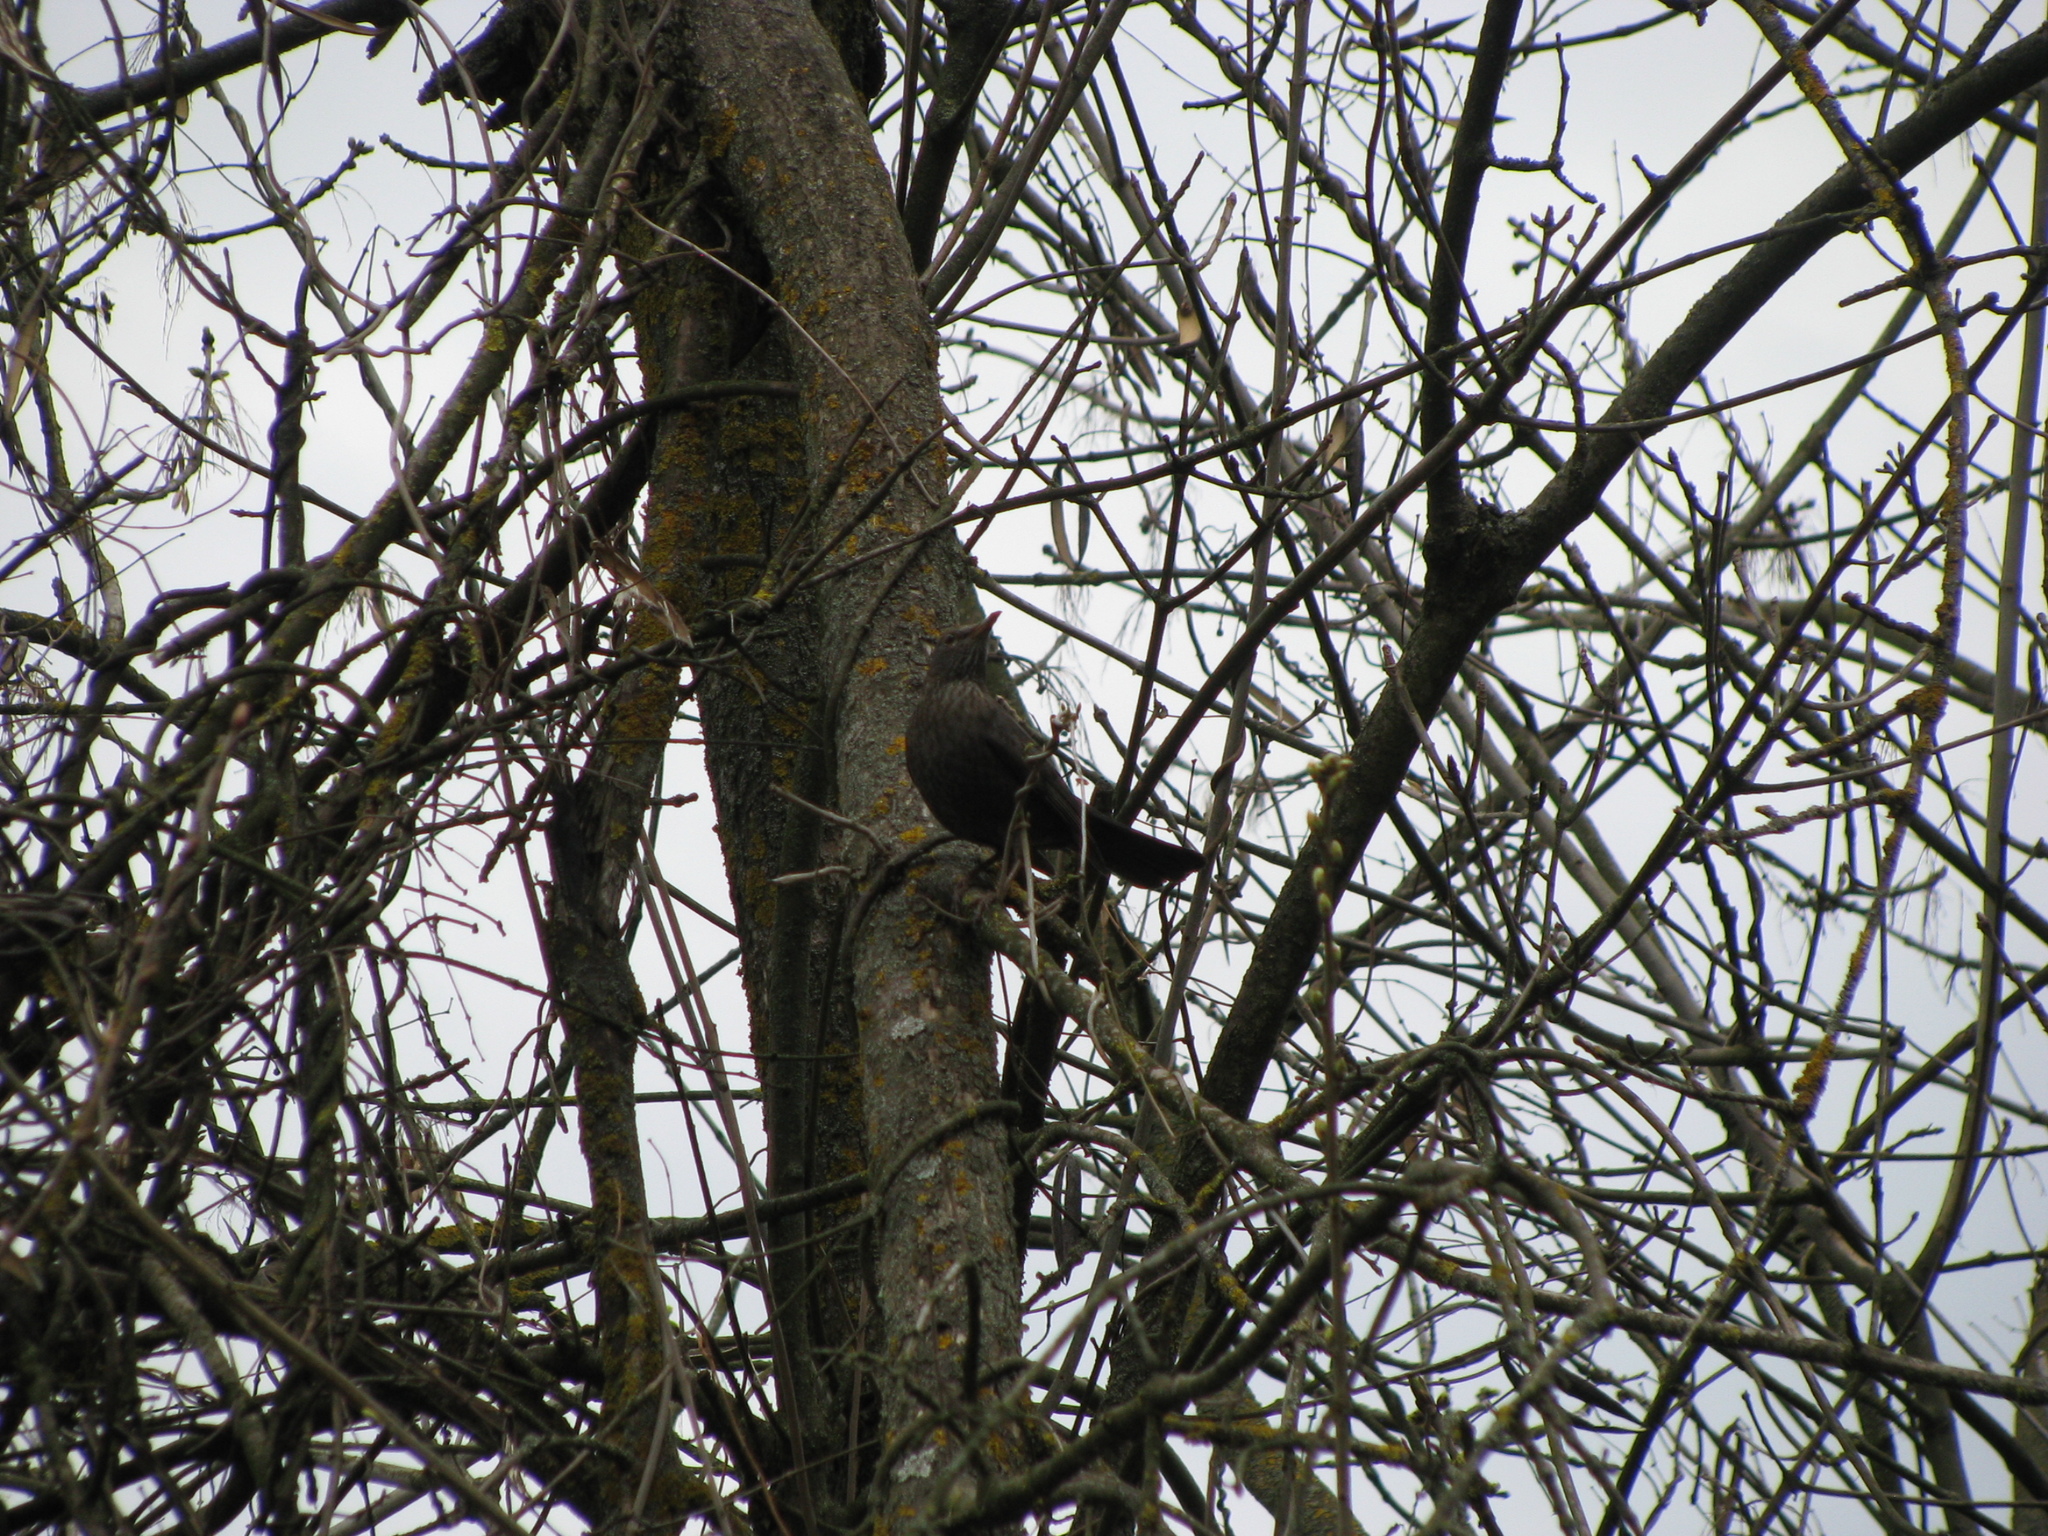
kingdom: Animalia
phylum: Chordata
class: Aves
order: Passeriformes
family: Turdidae
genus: Turdus
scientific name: Turdus merula
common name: Common blackbird
